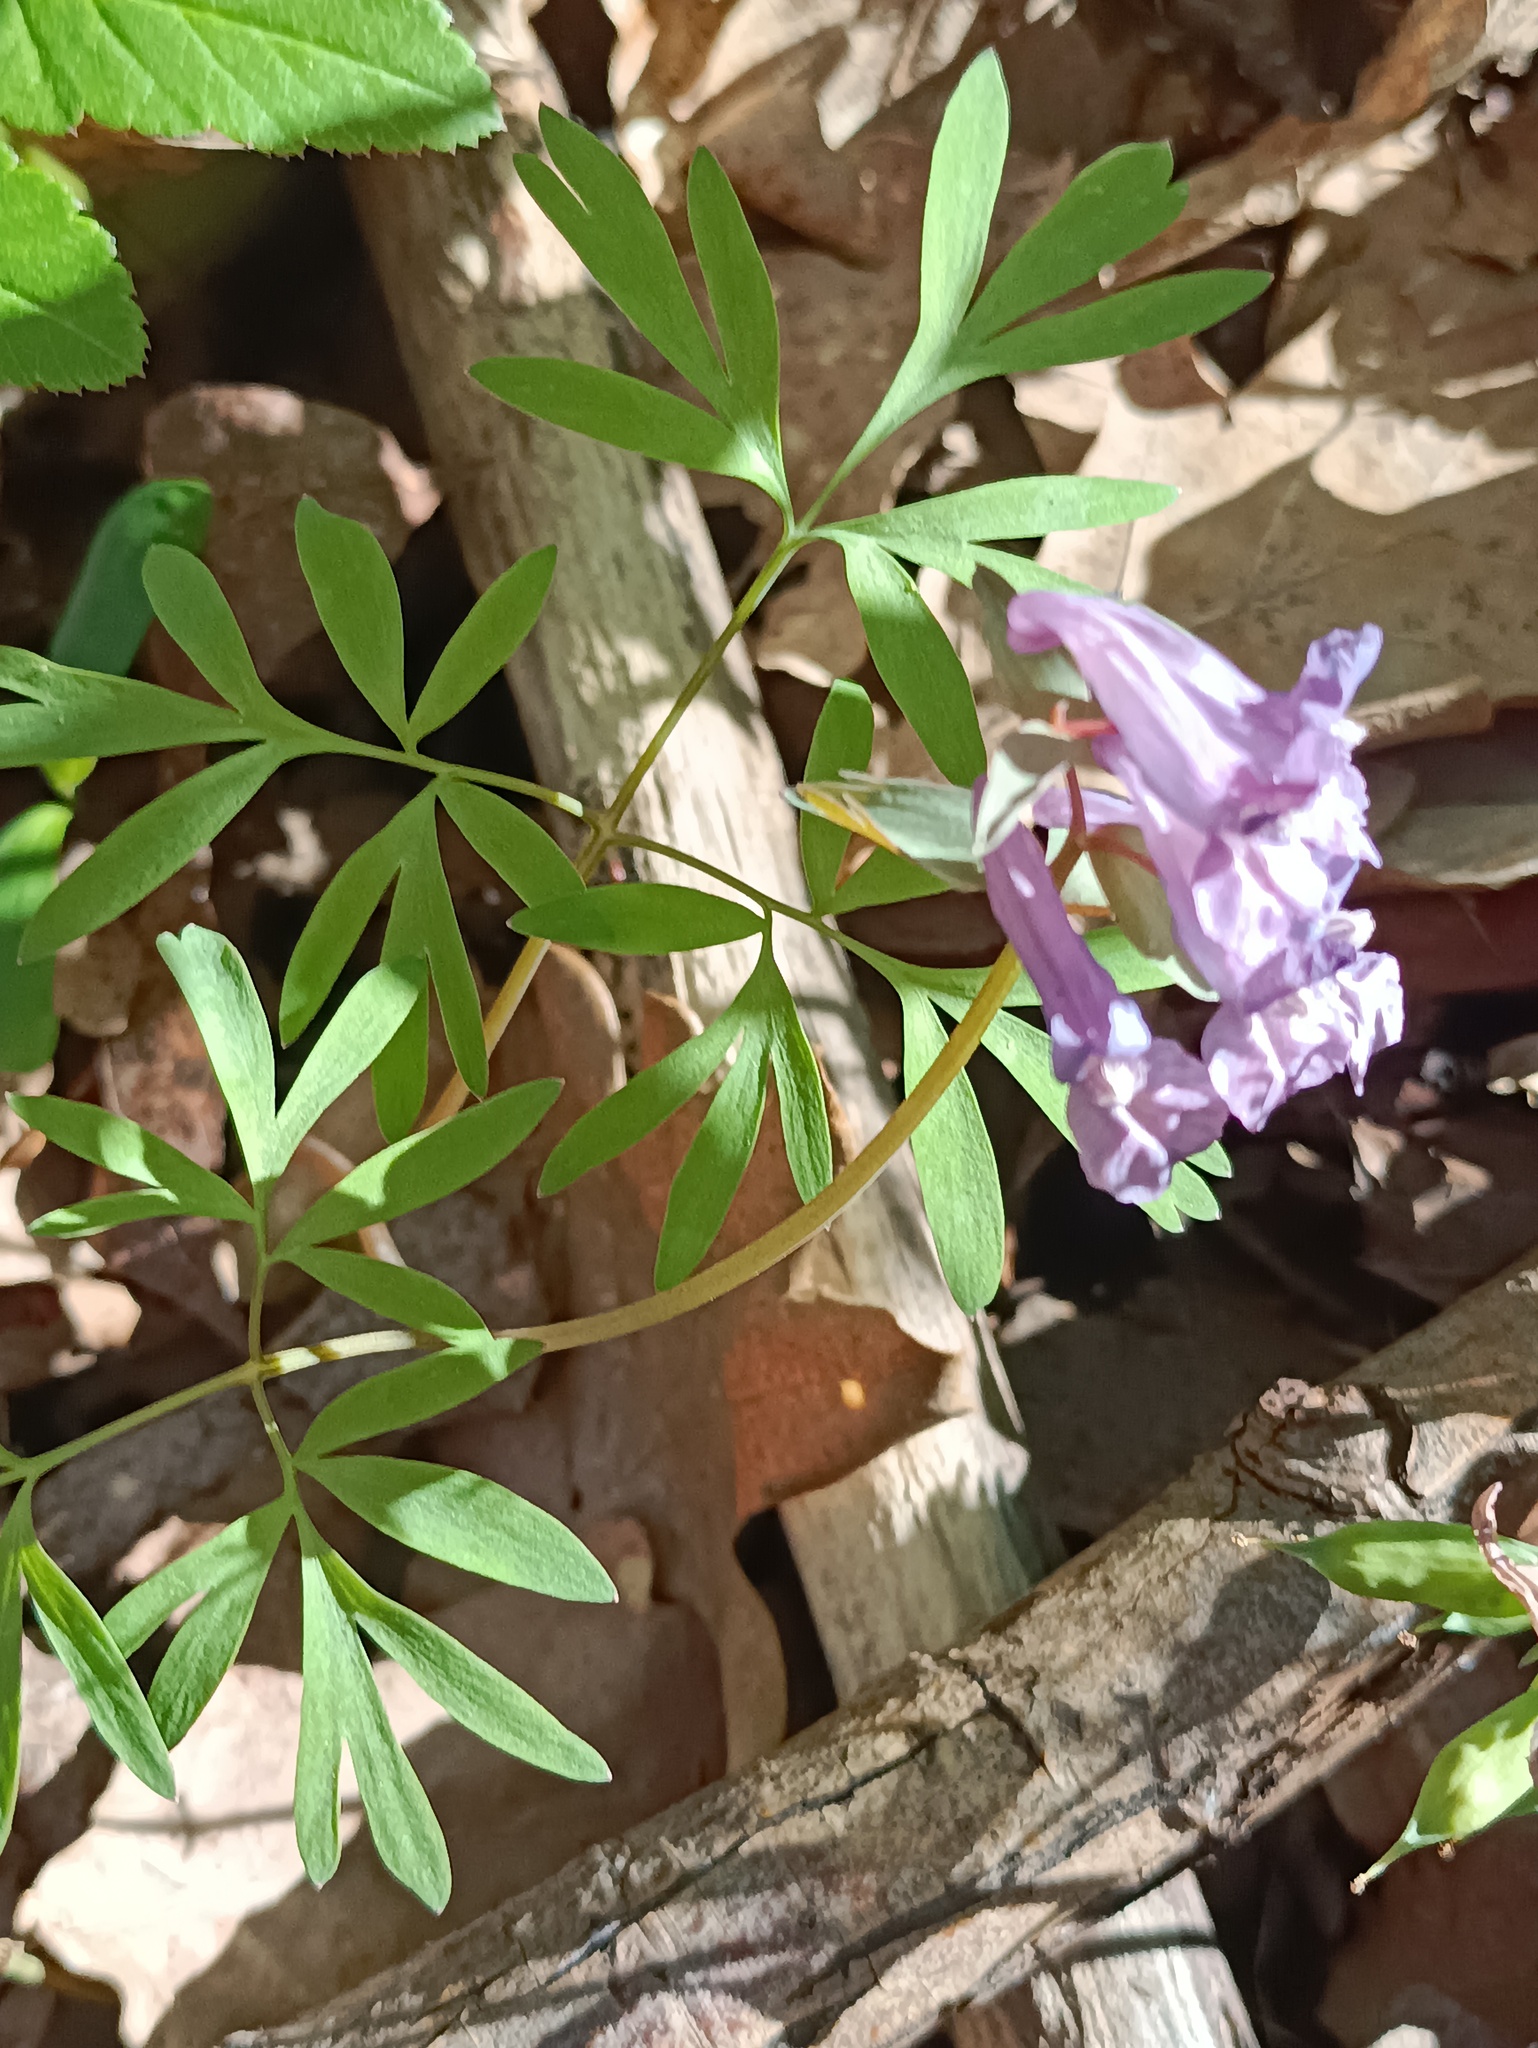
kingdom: Plantae
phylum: Tracheophyta
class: Magnoliopsida
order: Ranunculales
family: Papaveraceae
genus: Corydalis
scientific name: Corydalis solida
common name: Bird-in-a-bush
